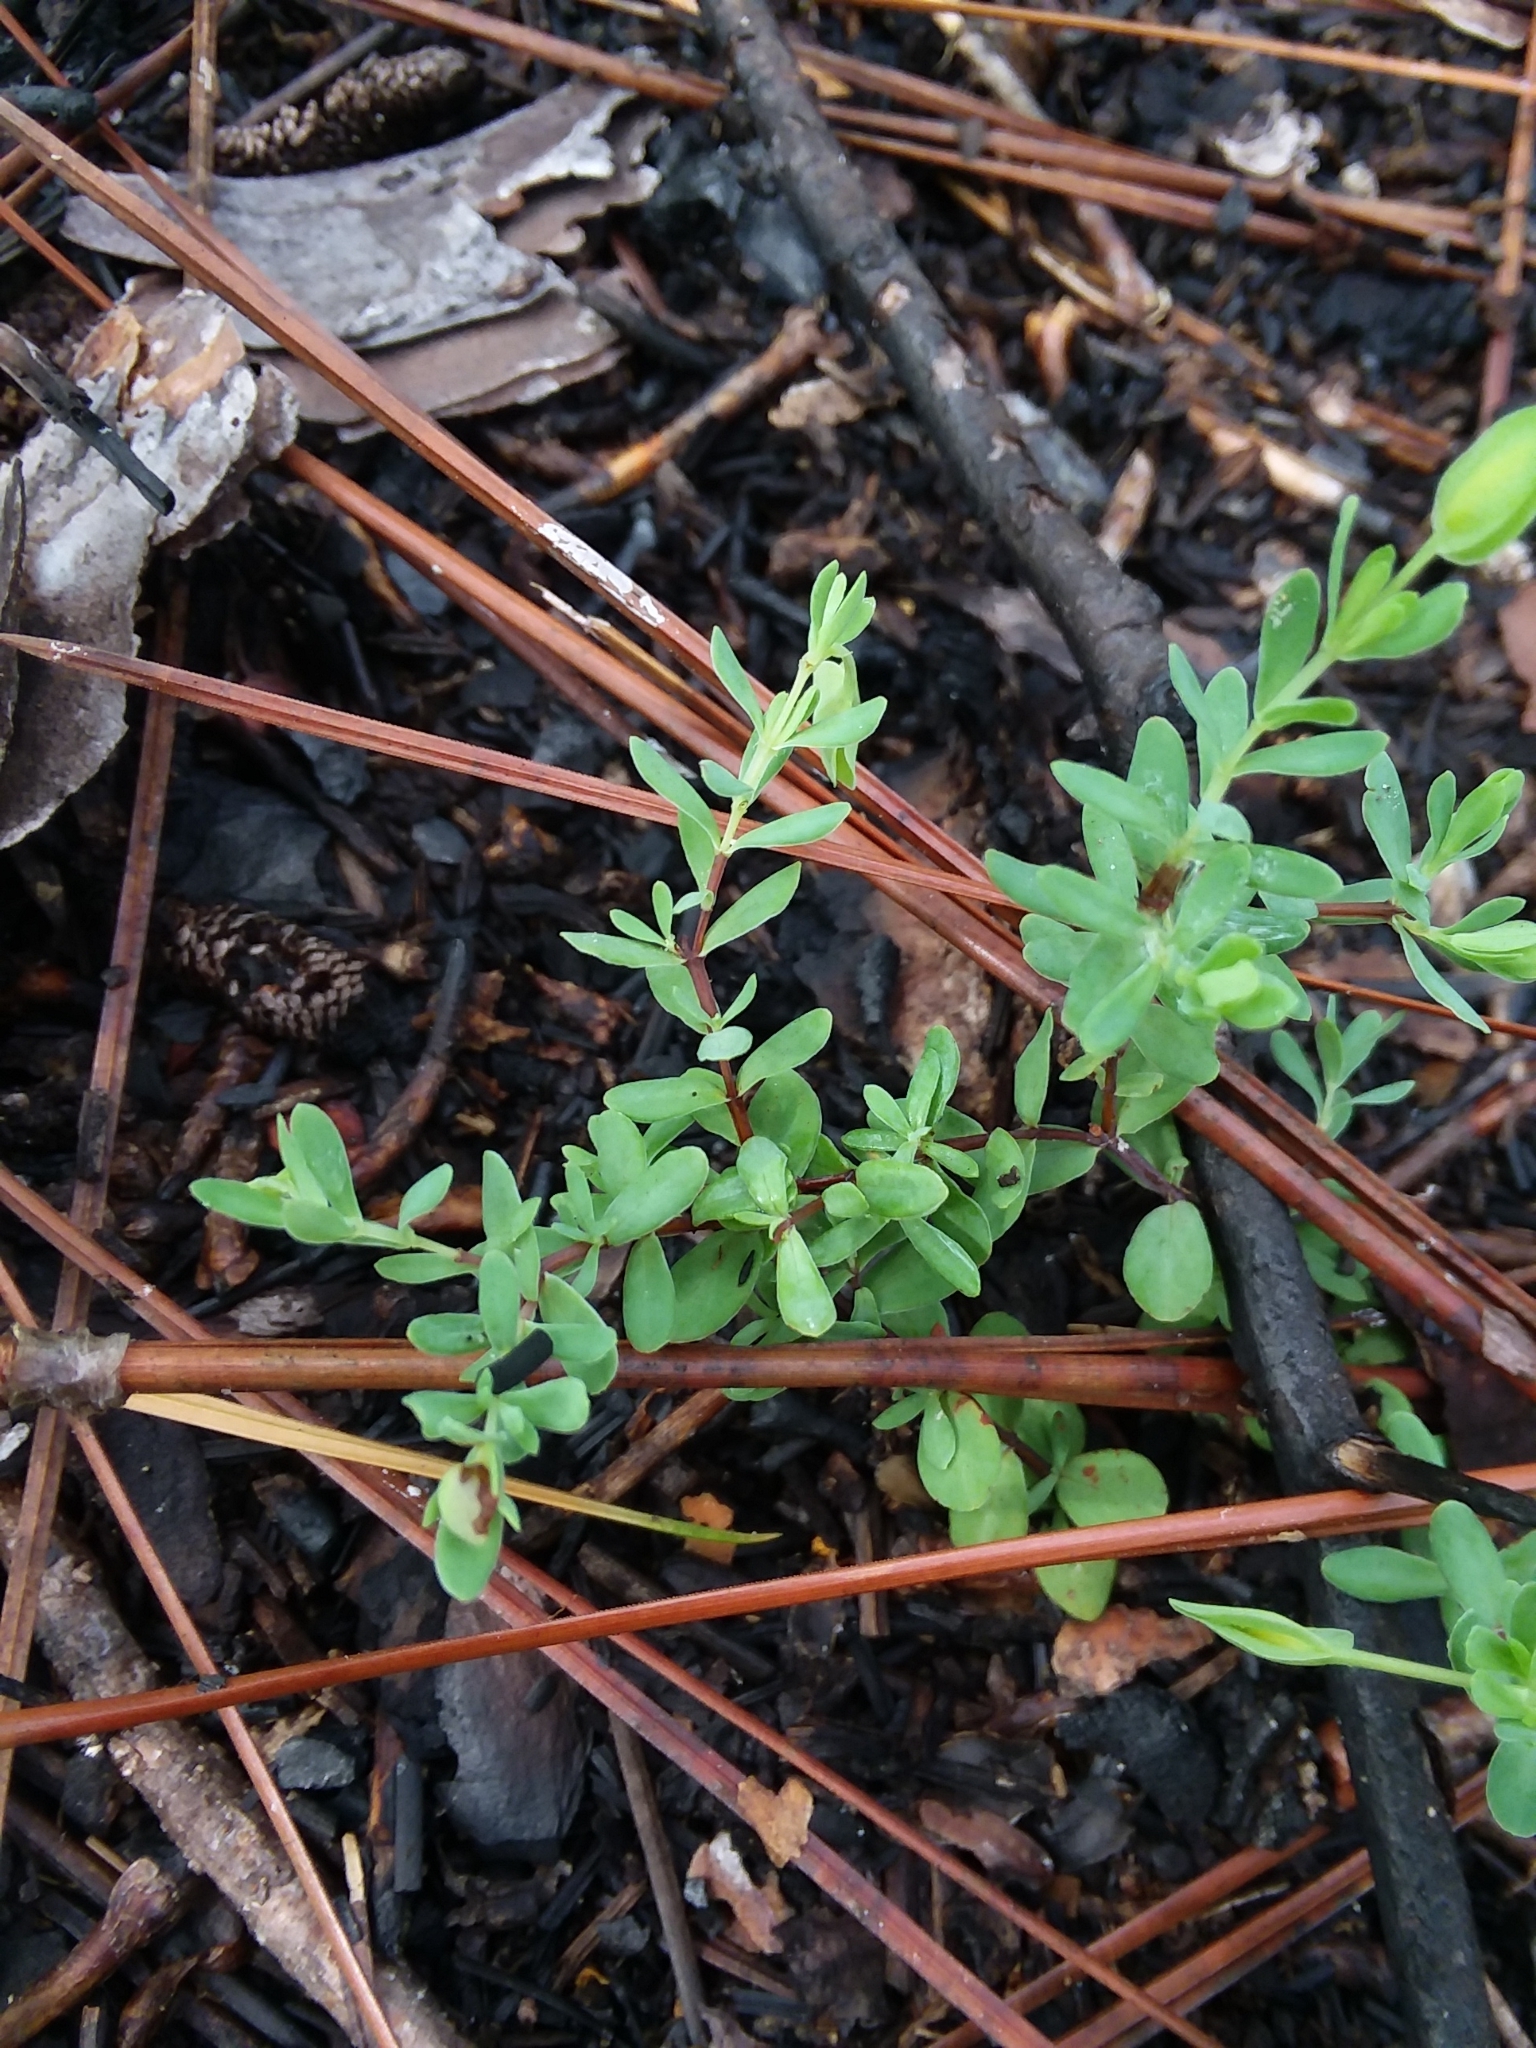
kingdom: Plantae
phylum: Tracheophyta
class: Magnoliopsida
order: Malpighiales
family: Hypericaceae
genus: Hypericum
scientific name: Hypericum suffruticosum
